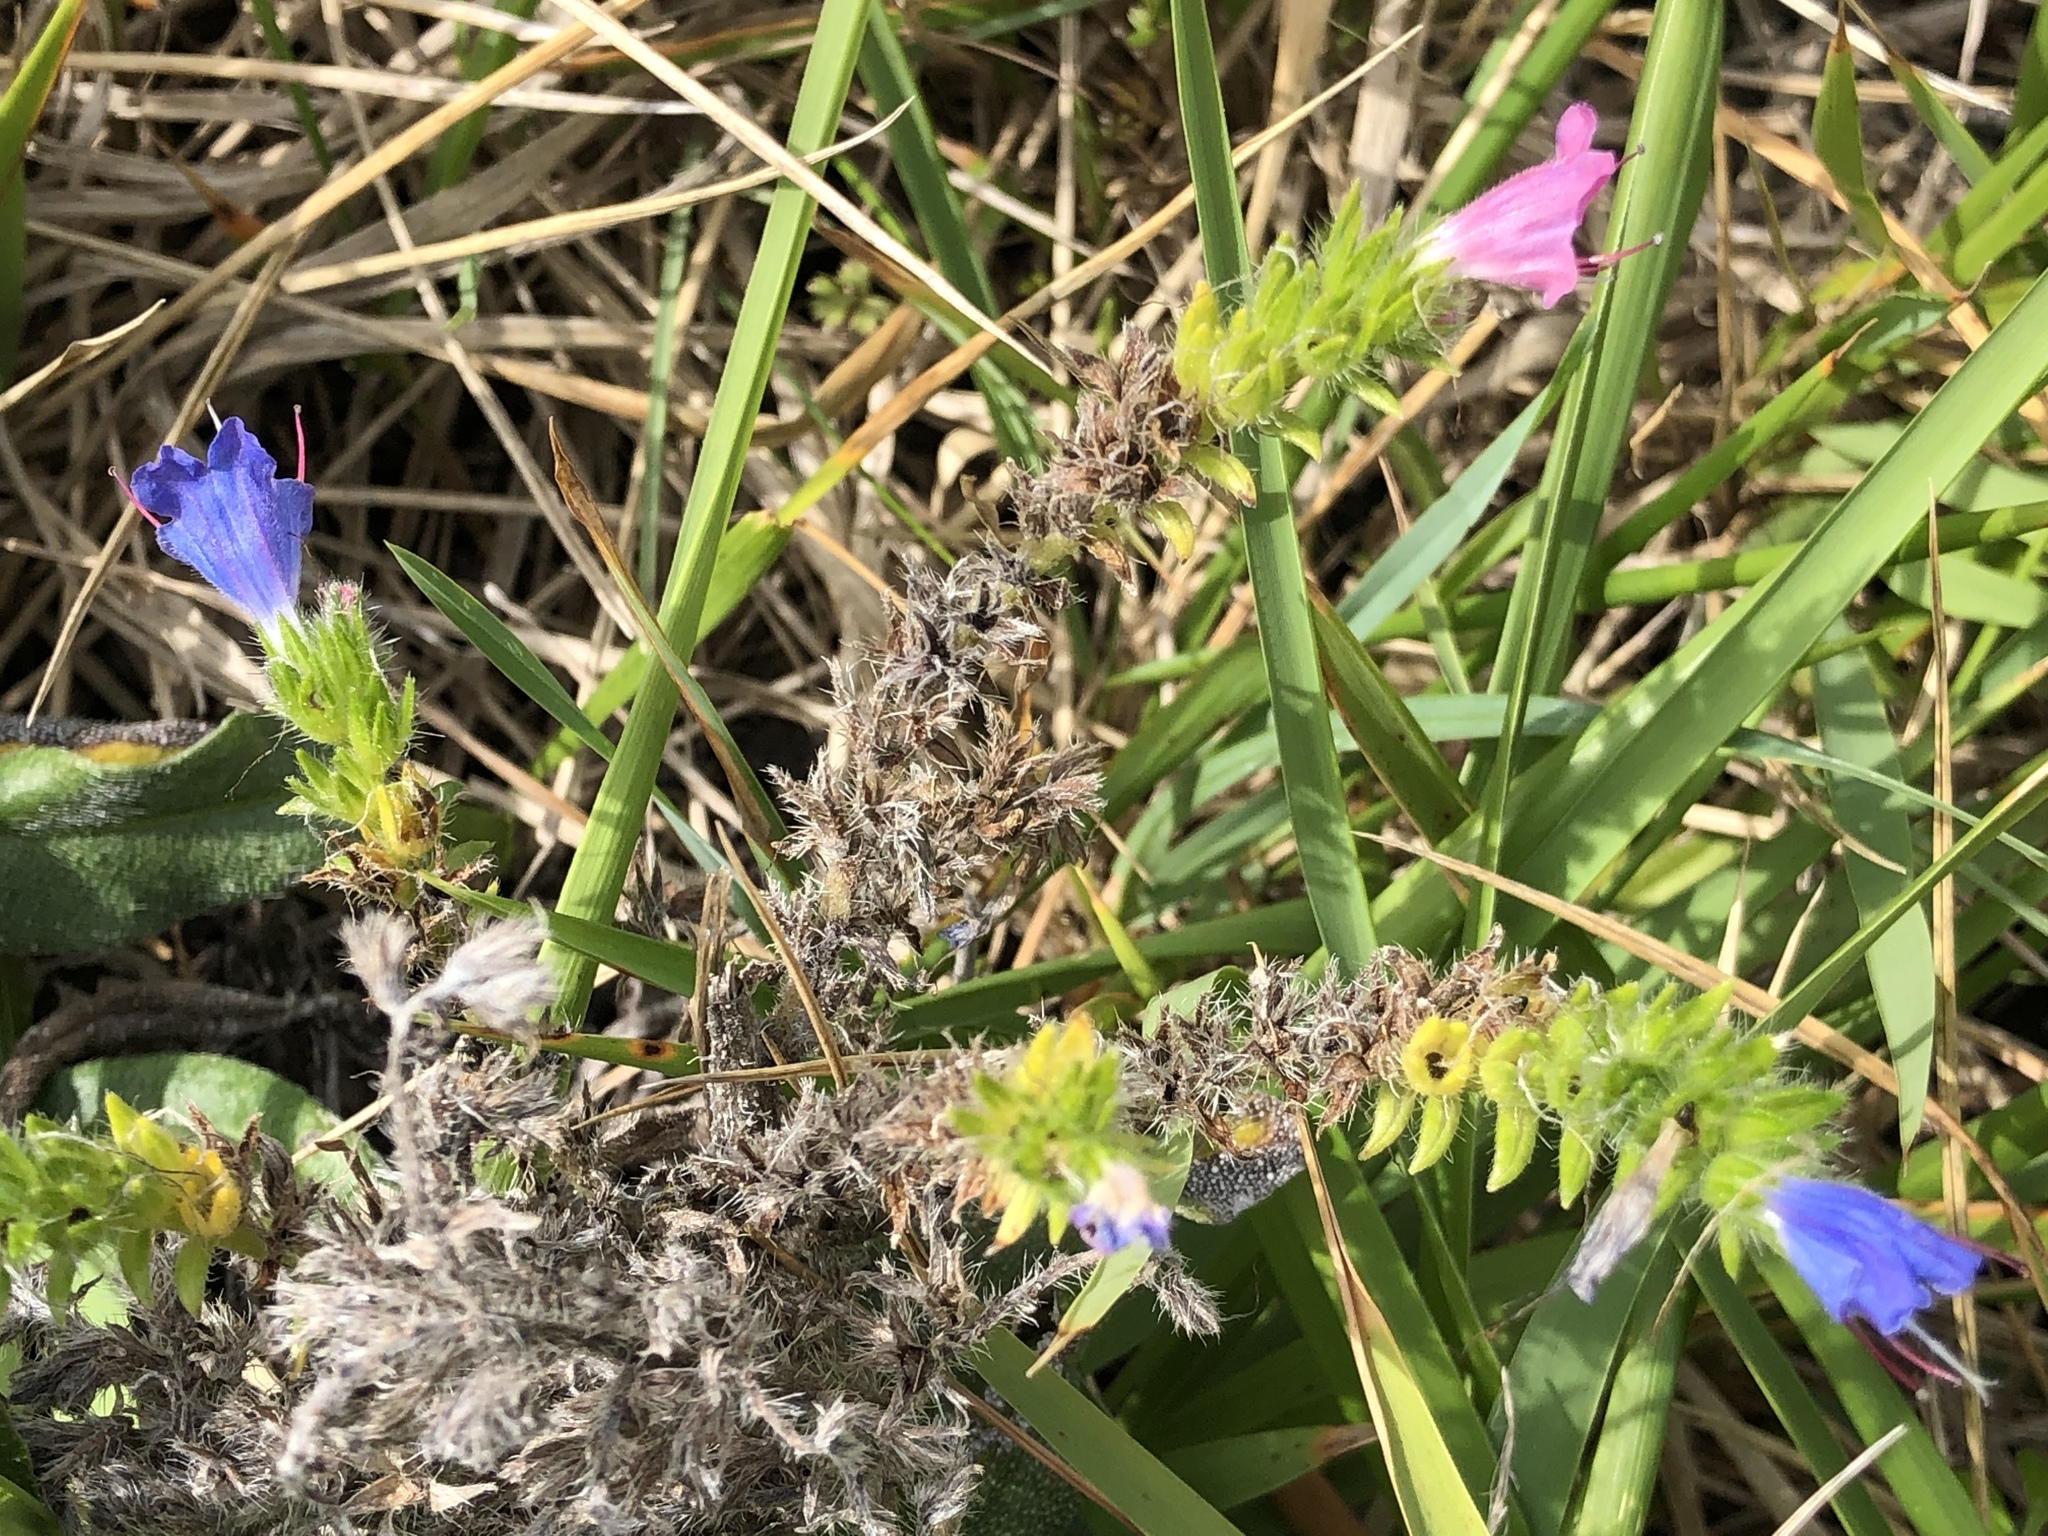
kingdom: Plantae
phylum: Tracheophyta
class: Magnoliopsida
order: Boraginales
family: Boraginaceae
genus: Echium
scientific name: Echium vulgare
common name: Common viper's bugloss
